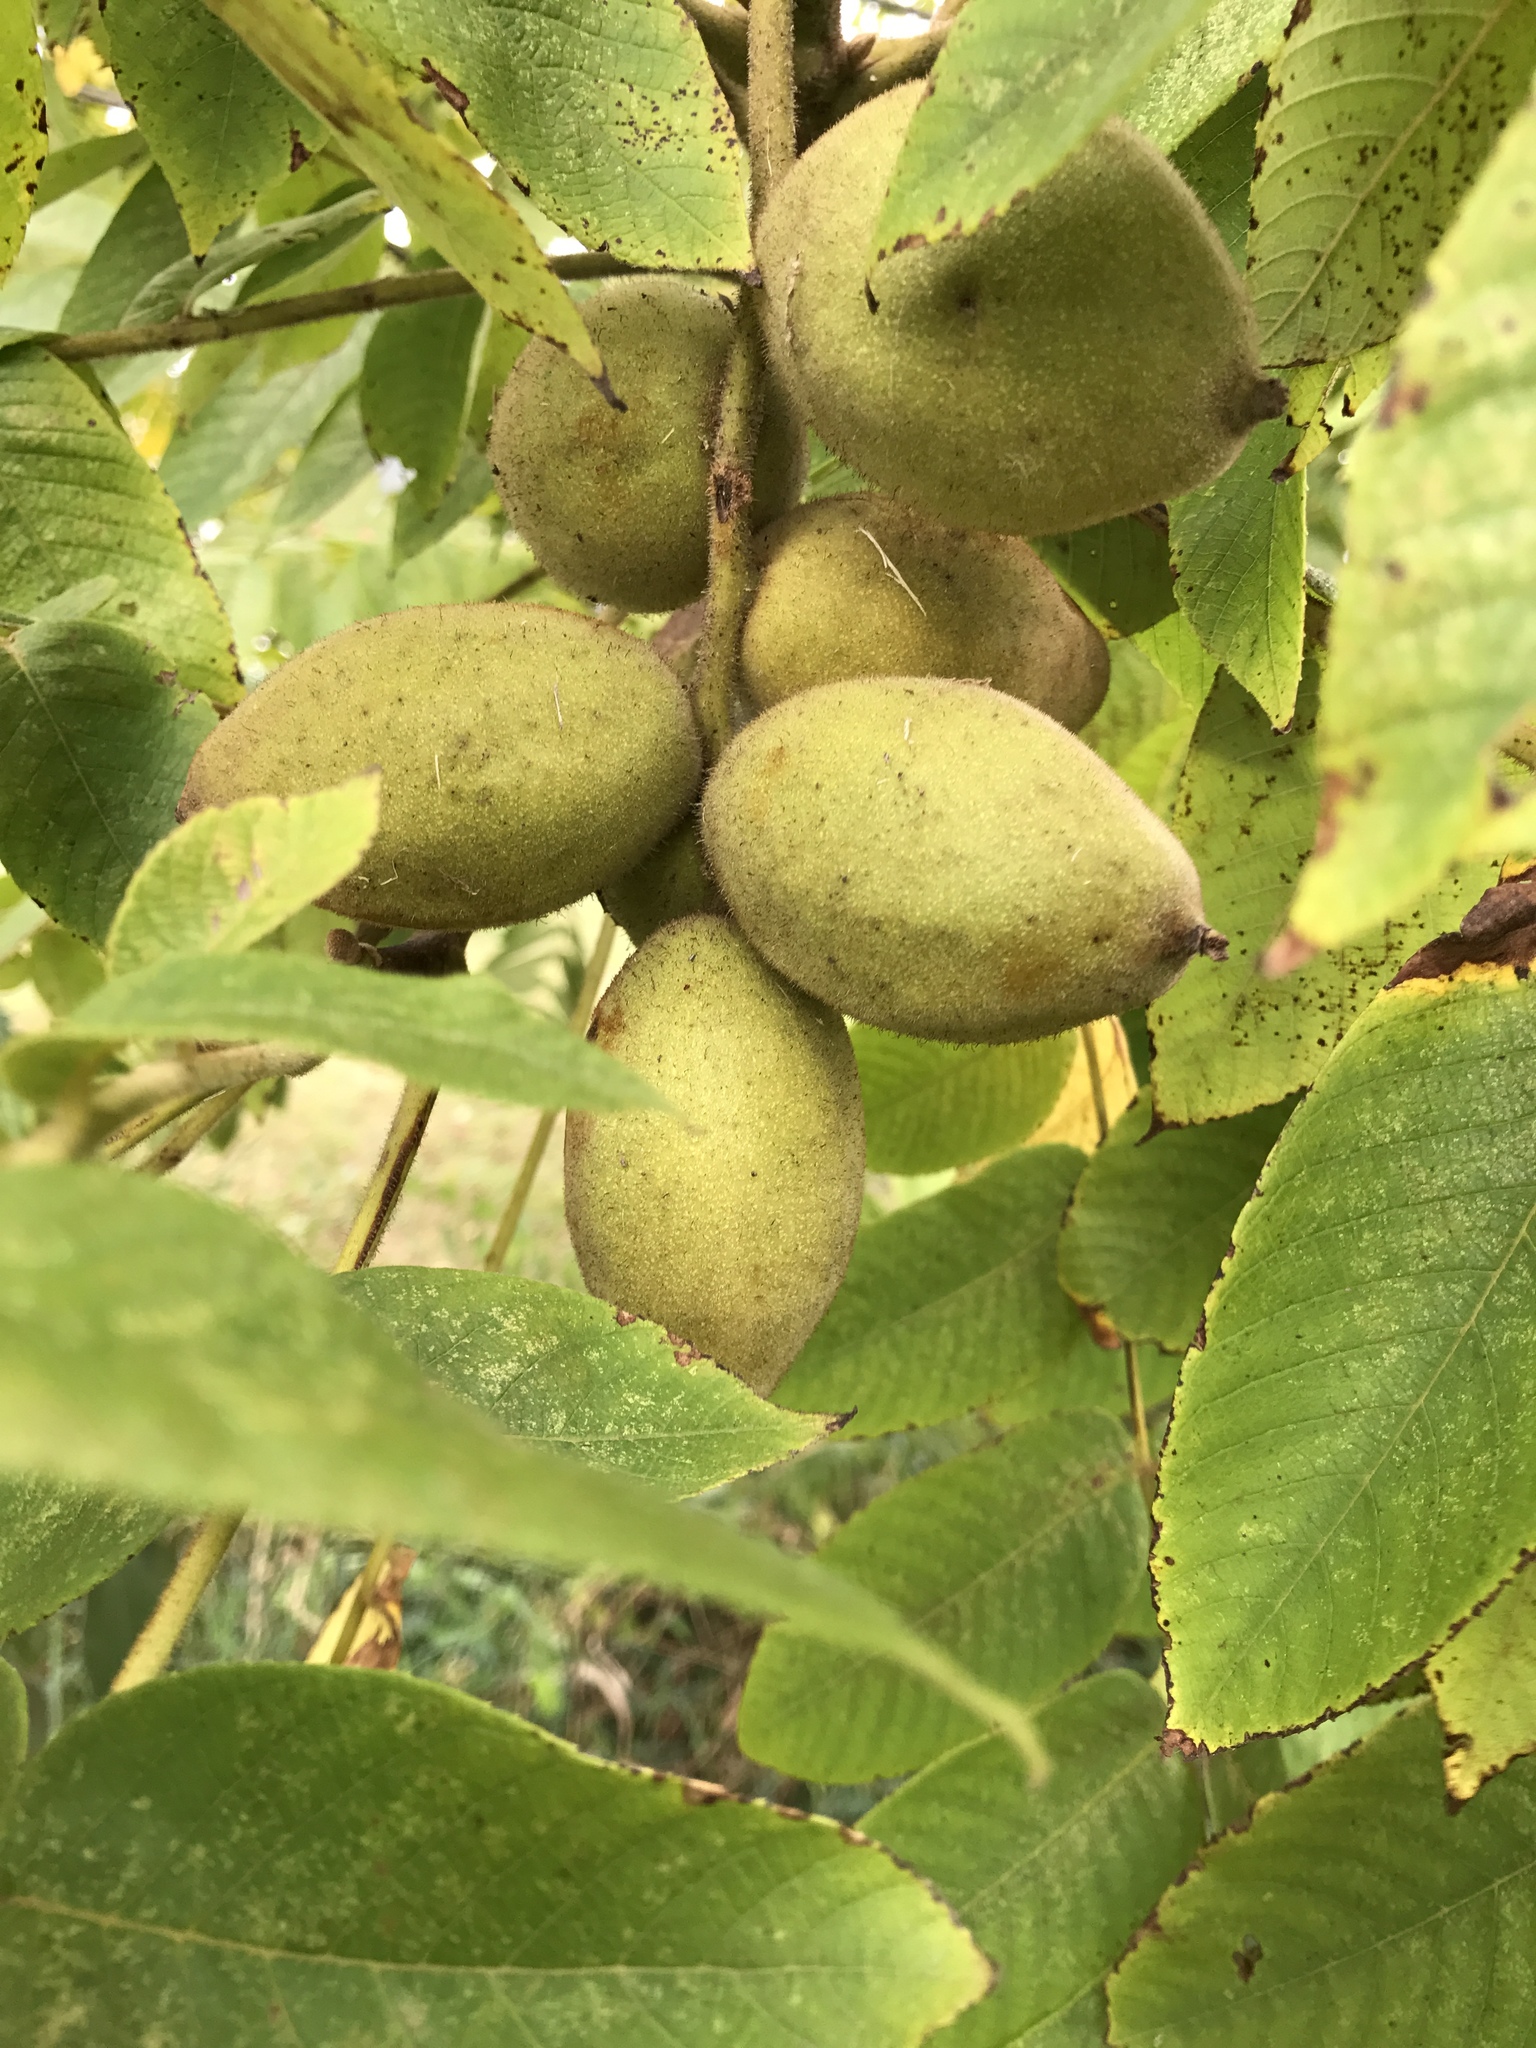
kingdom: Plantae
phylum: Tracheophyta
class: Magnoliopsida
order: Fagales
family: Juglandaceae
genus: Juglans
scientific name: Juglans cinerea
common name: Butternut
